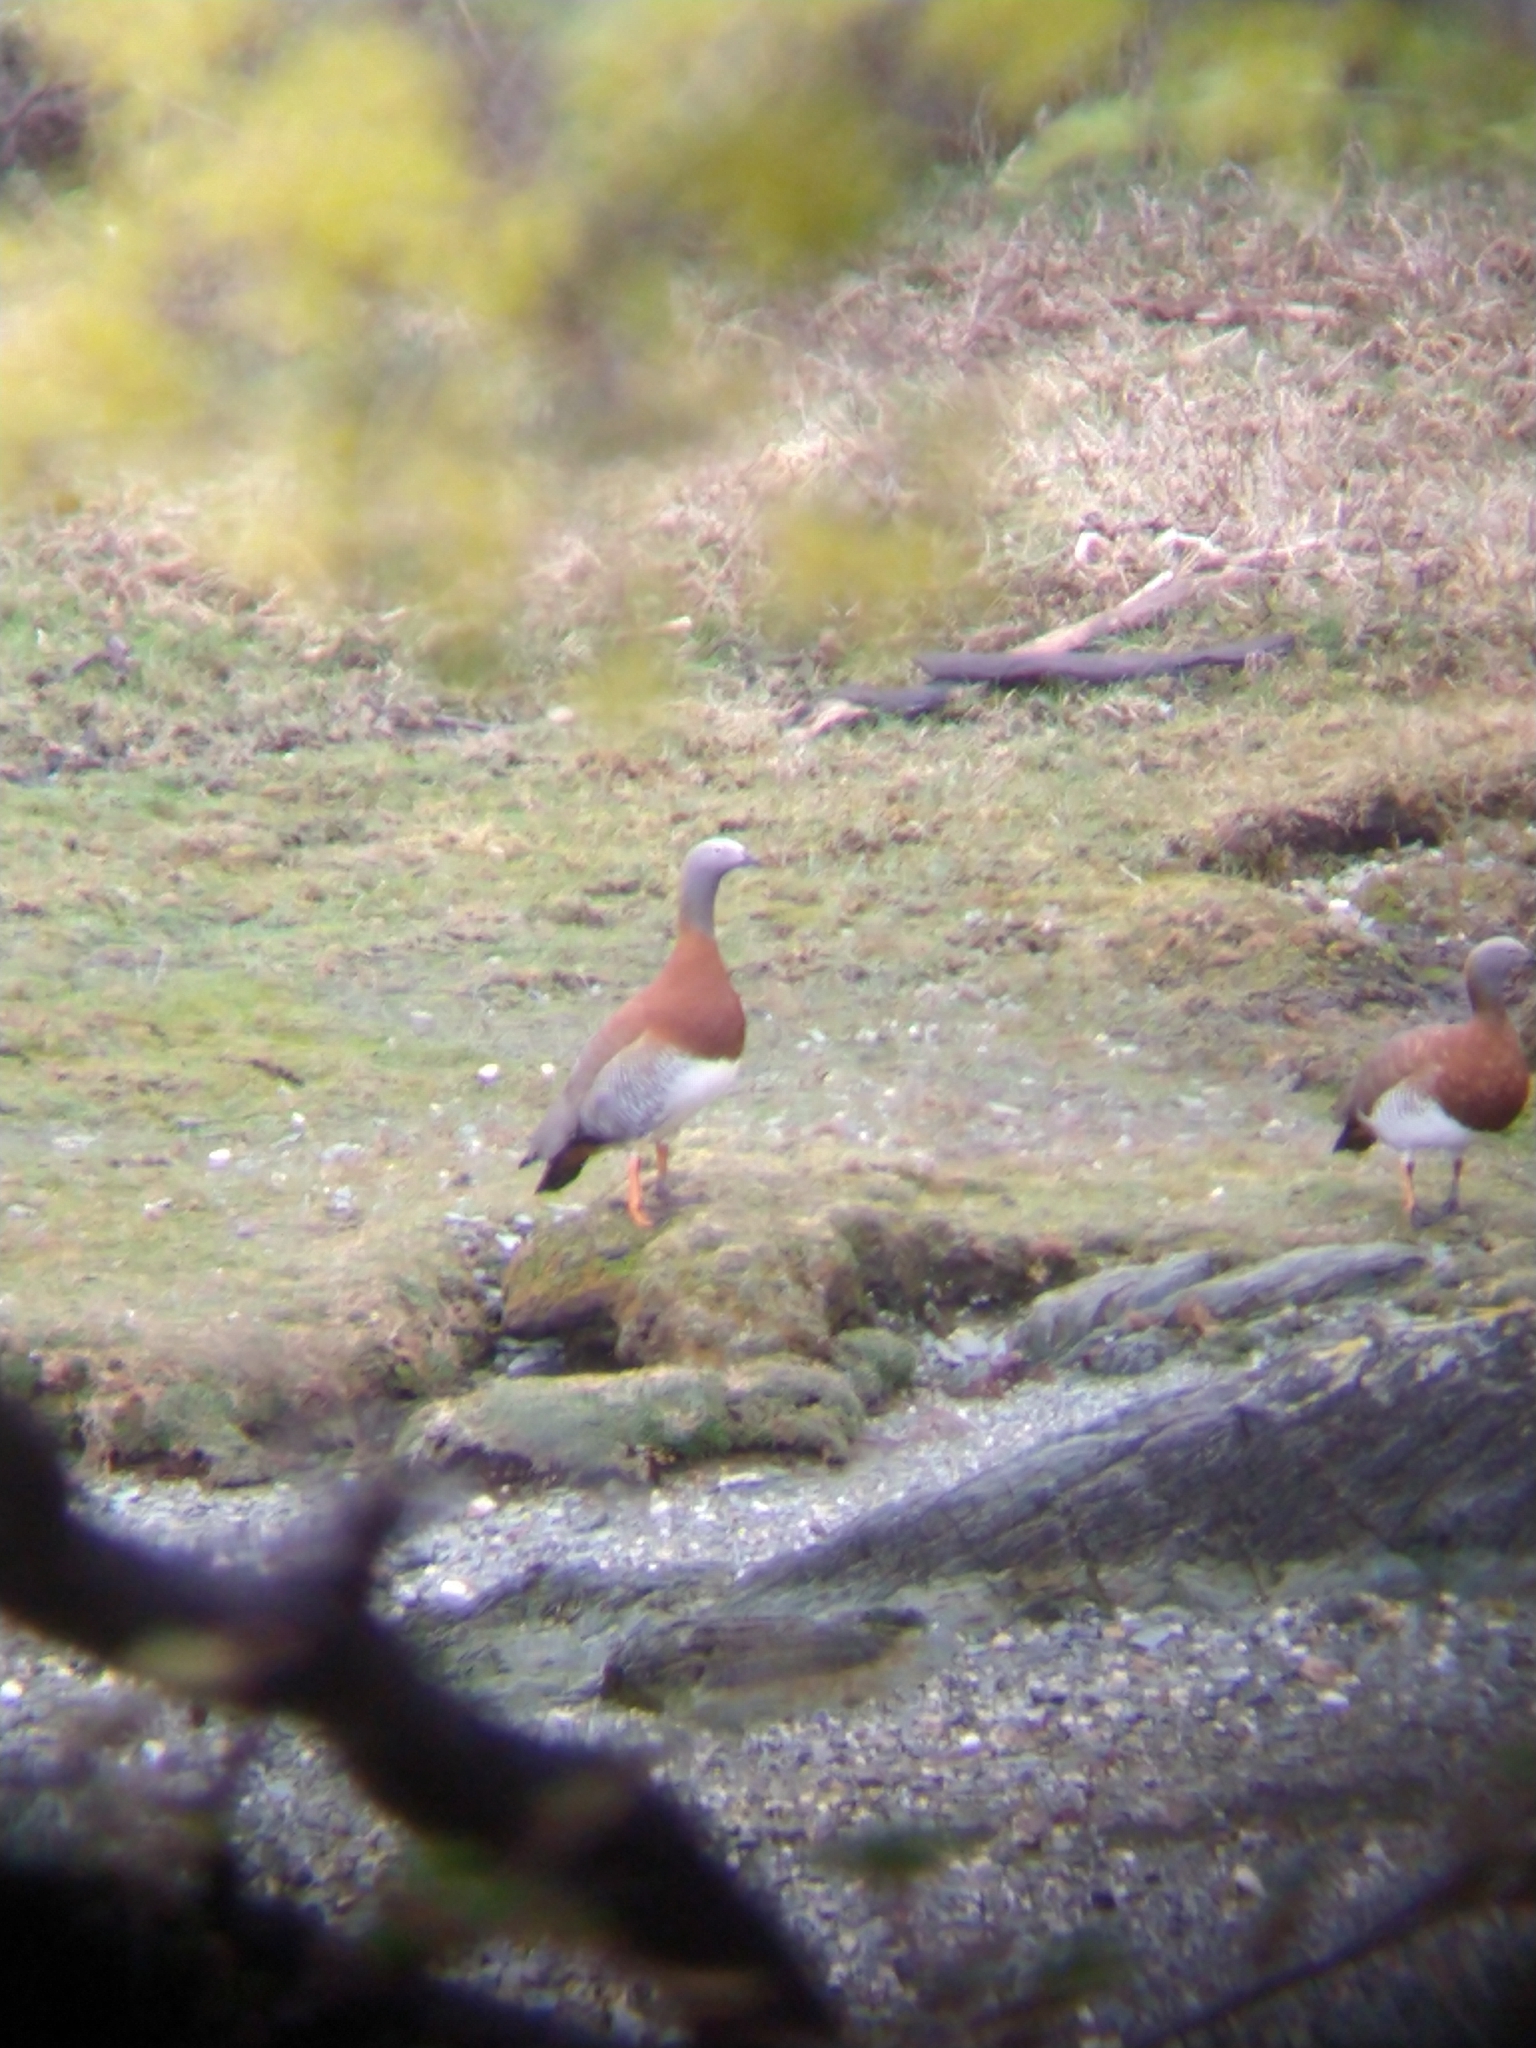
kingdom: Animalia
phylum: Chordata
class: Aves
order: Anseriformes
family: Anatidae
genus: Chloephaga
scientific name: Chloephaga poliocephala
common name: Ashy-headed goose
